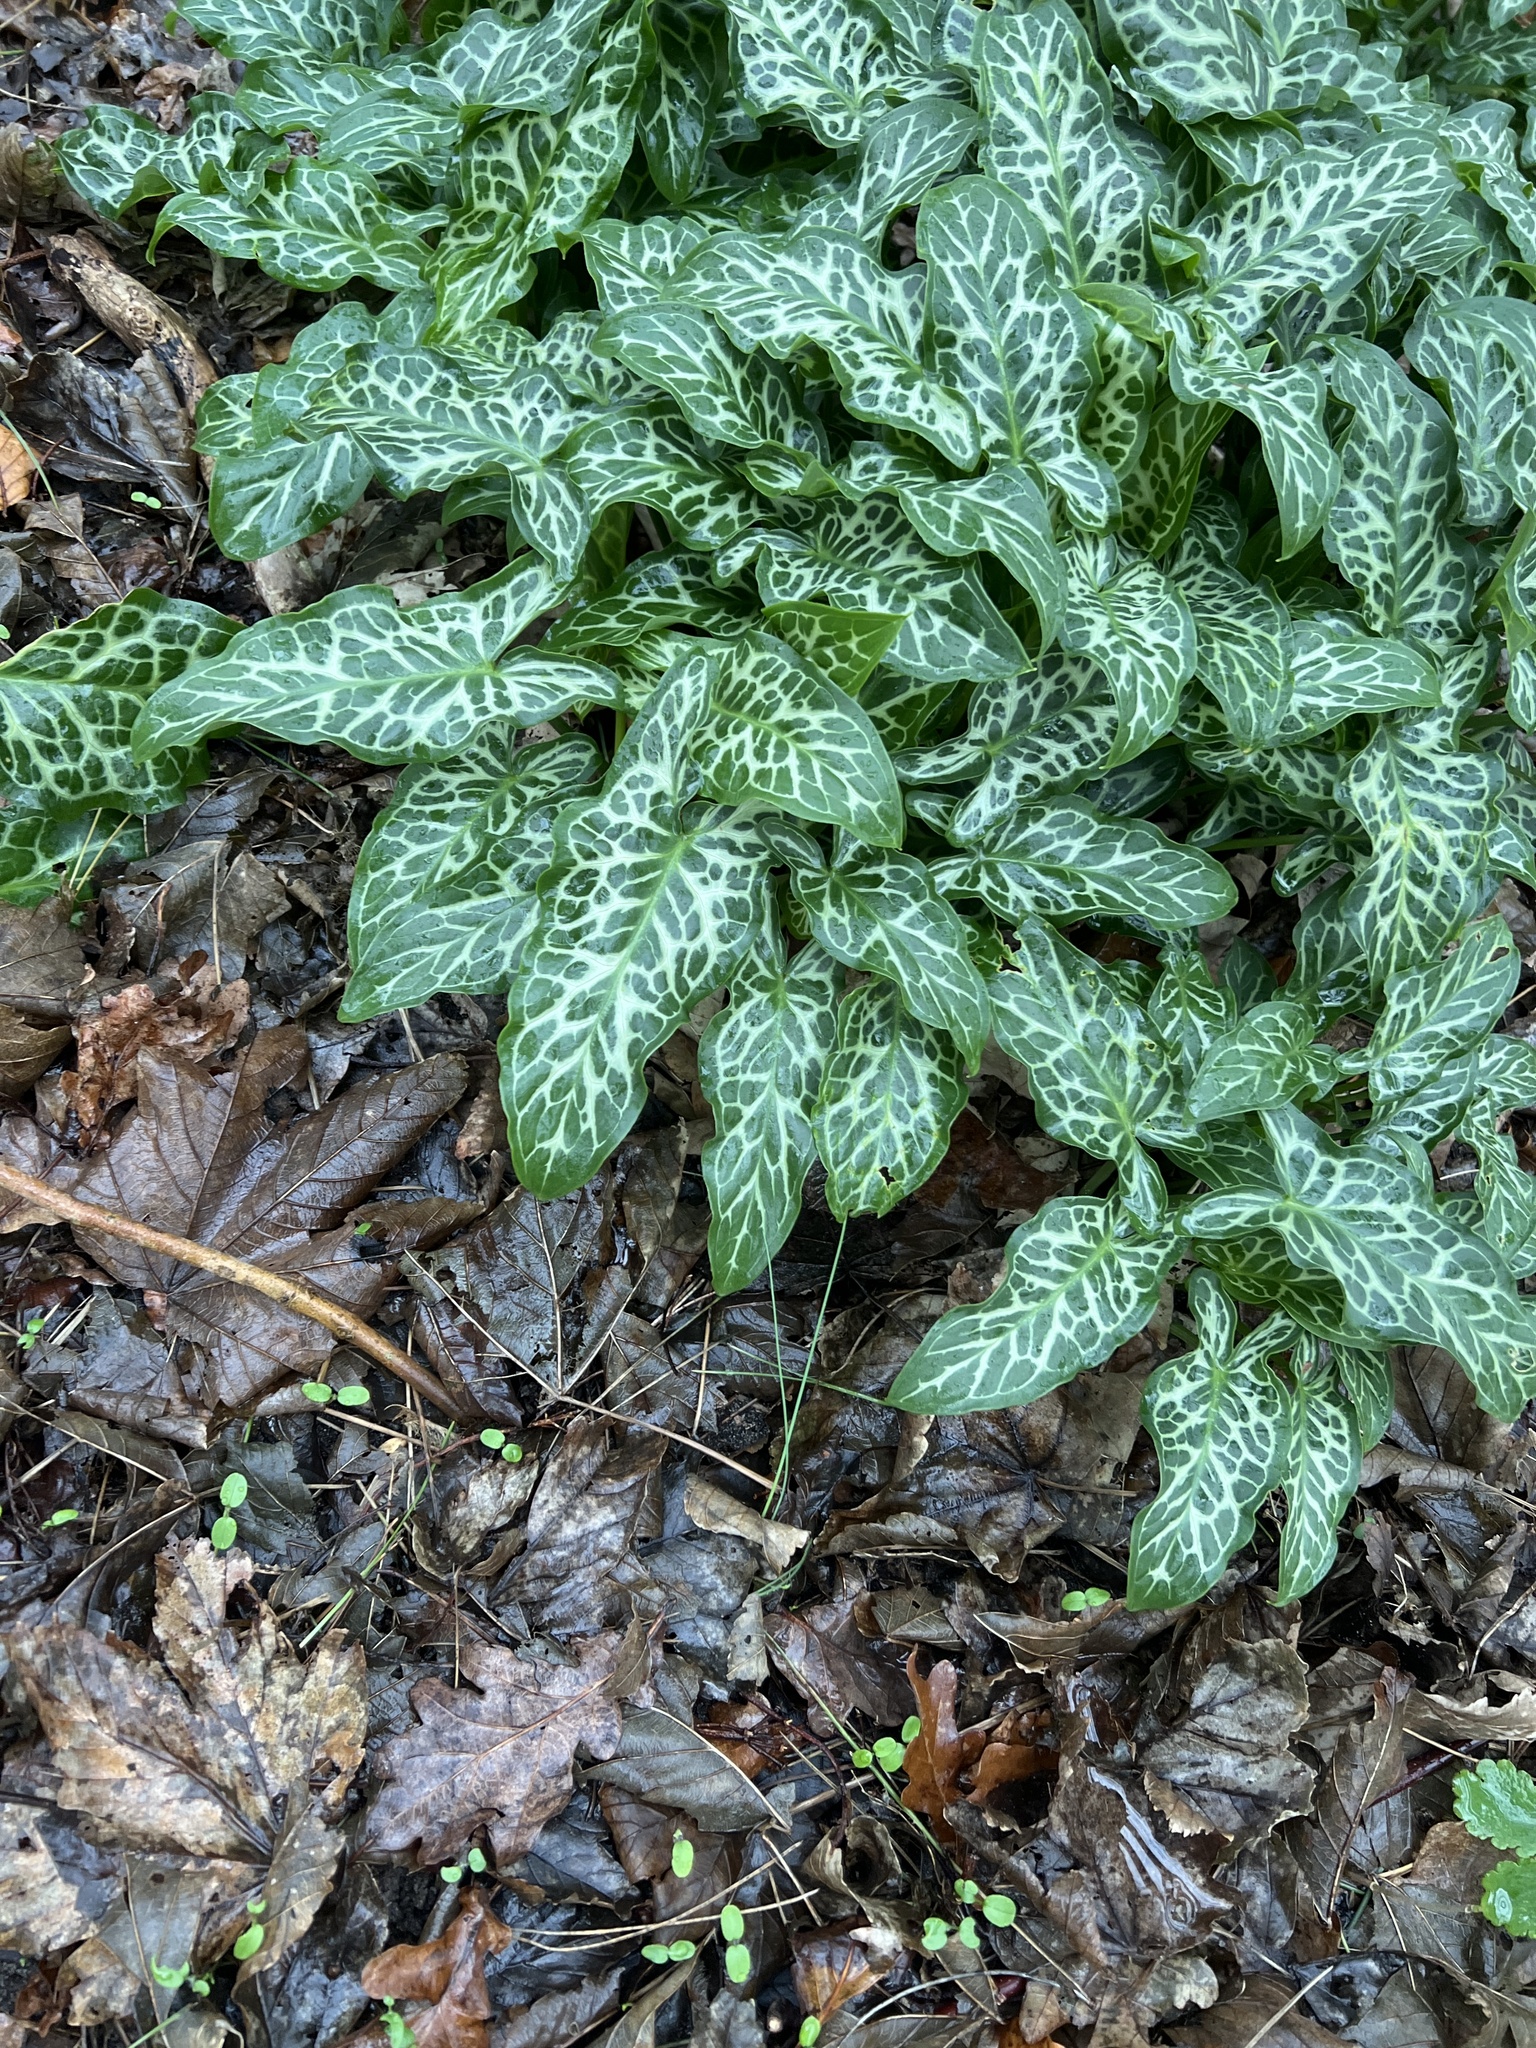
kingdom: Plantae
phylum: Tracheophyta
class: Liliopsida
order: Alismatales
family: Araceae
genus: Arum
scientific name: Arum italicum
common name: Italian lords-and-ladies
